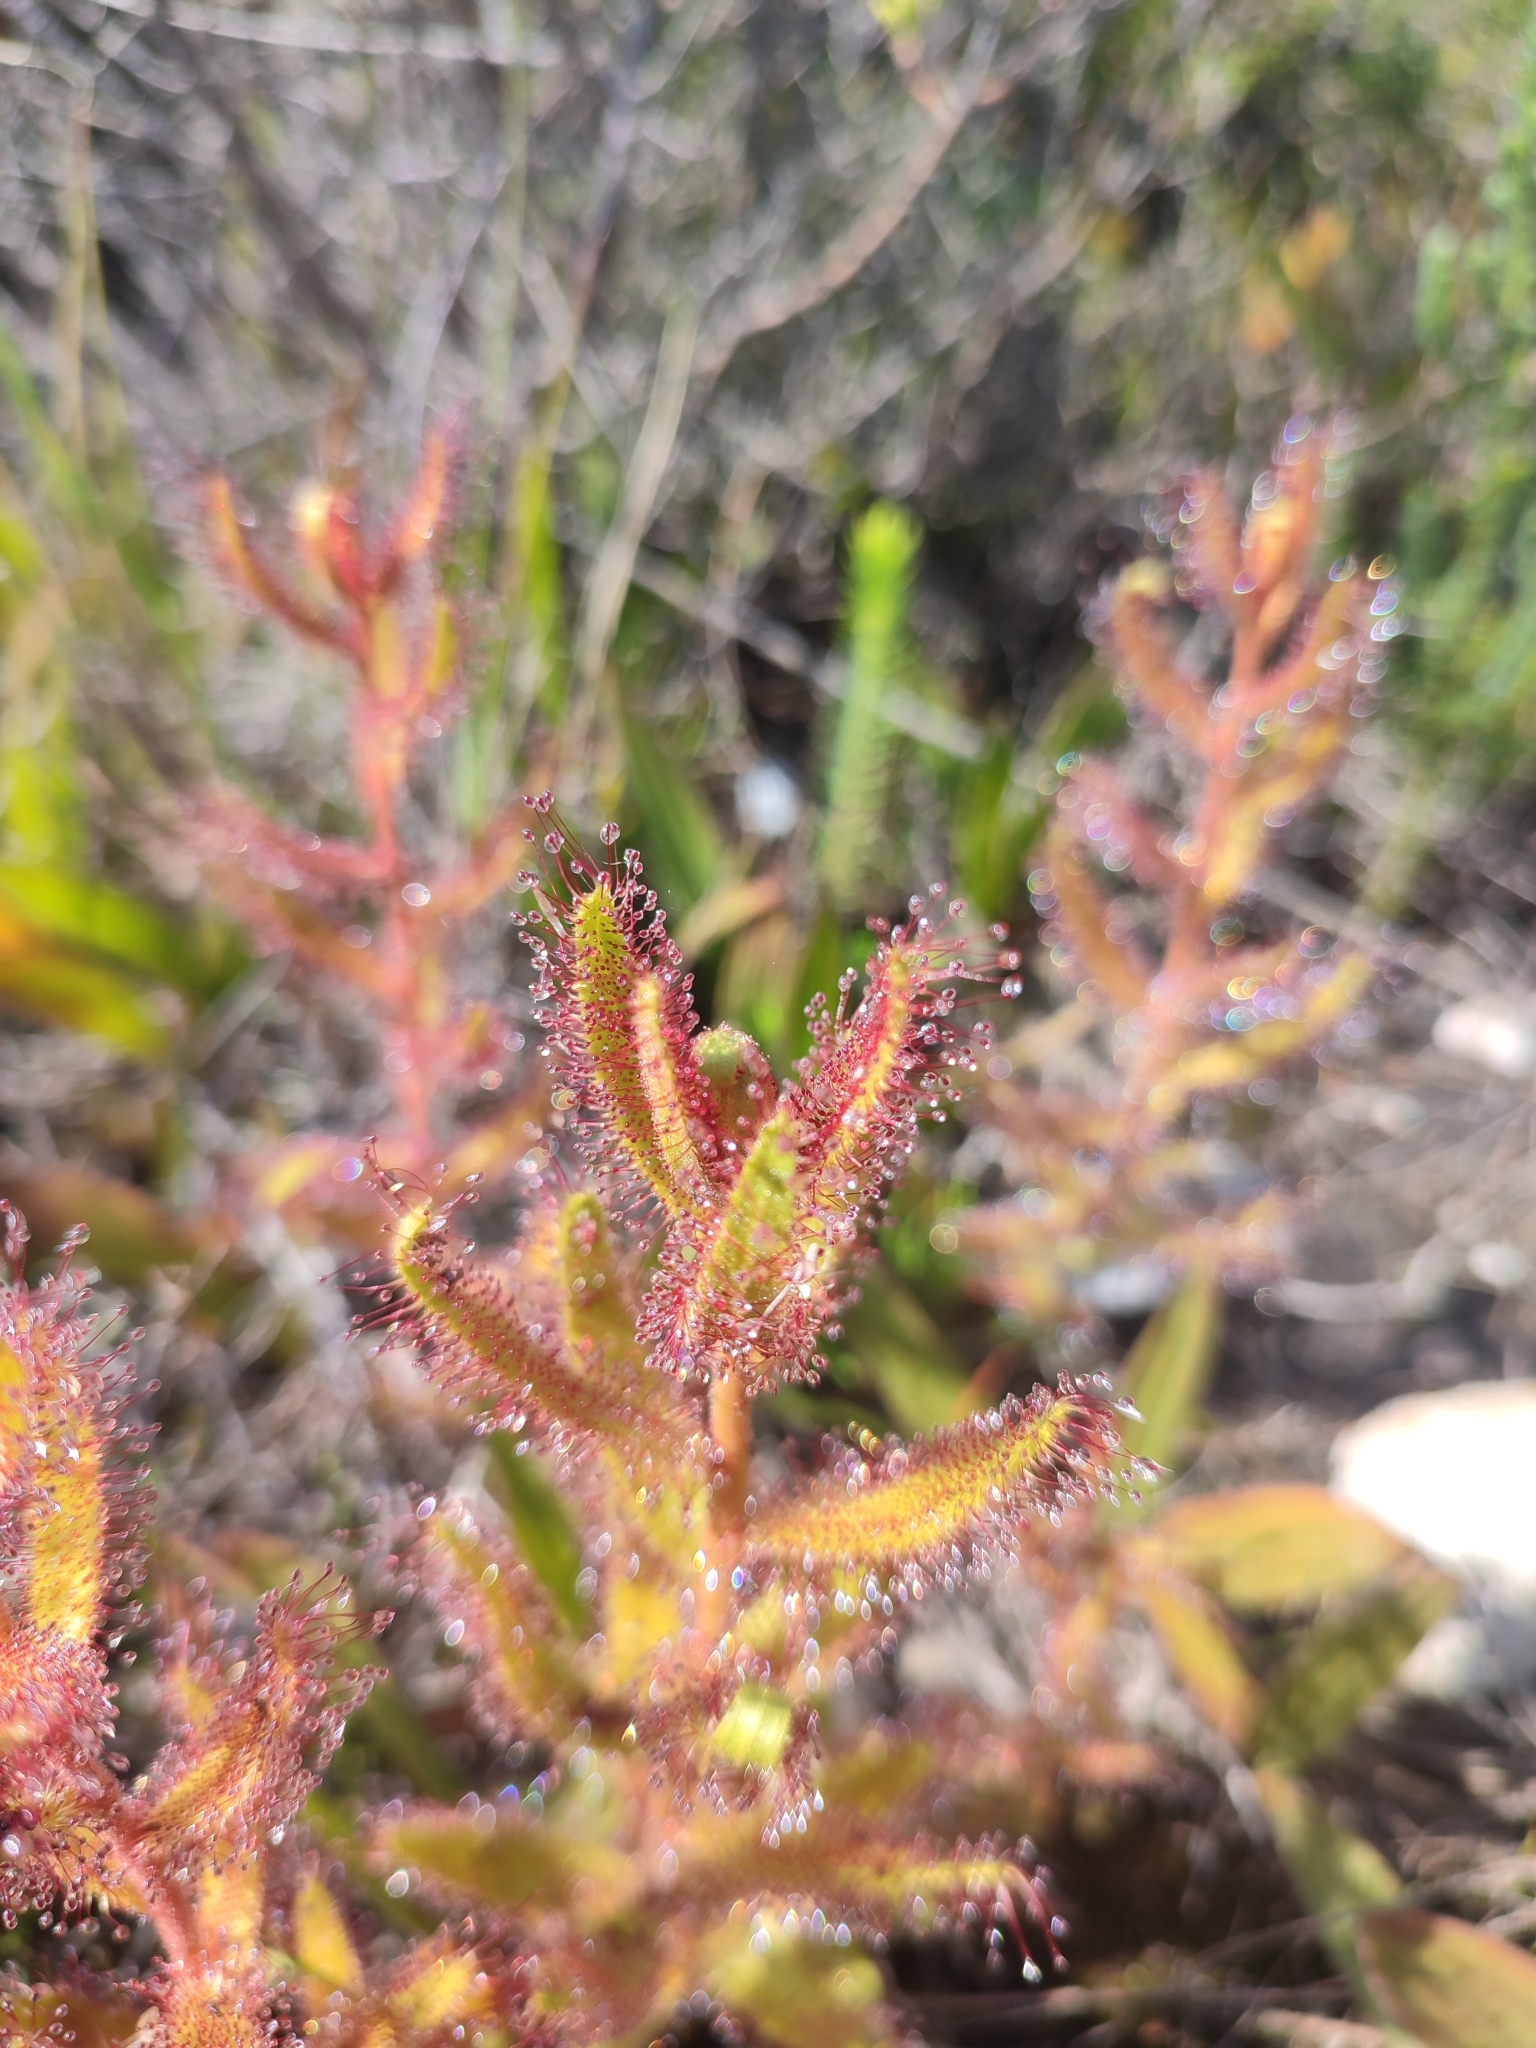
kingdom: Plantae
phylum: Tracheophyta
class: Magnoliopsida
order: Caryophyllales
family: Droseraceae
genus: Drosera
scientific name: Drosera cistiflora
